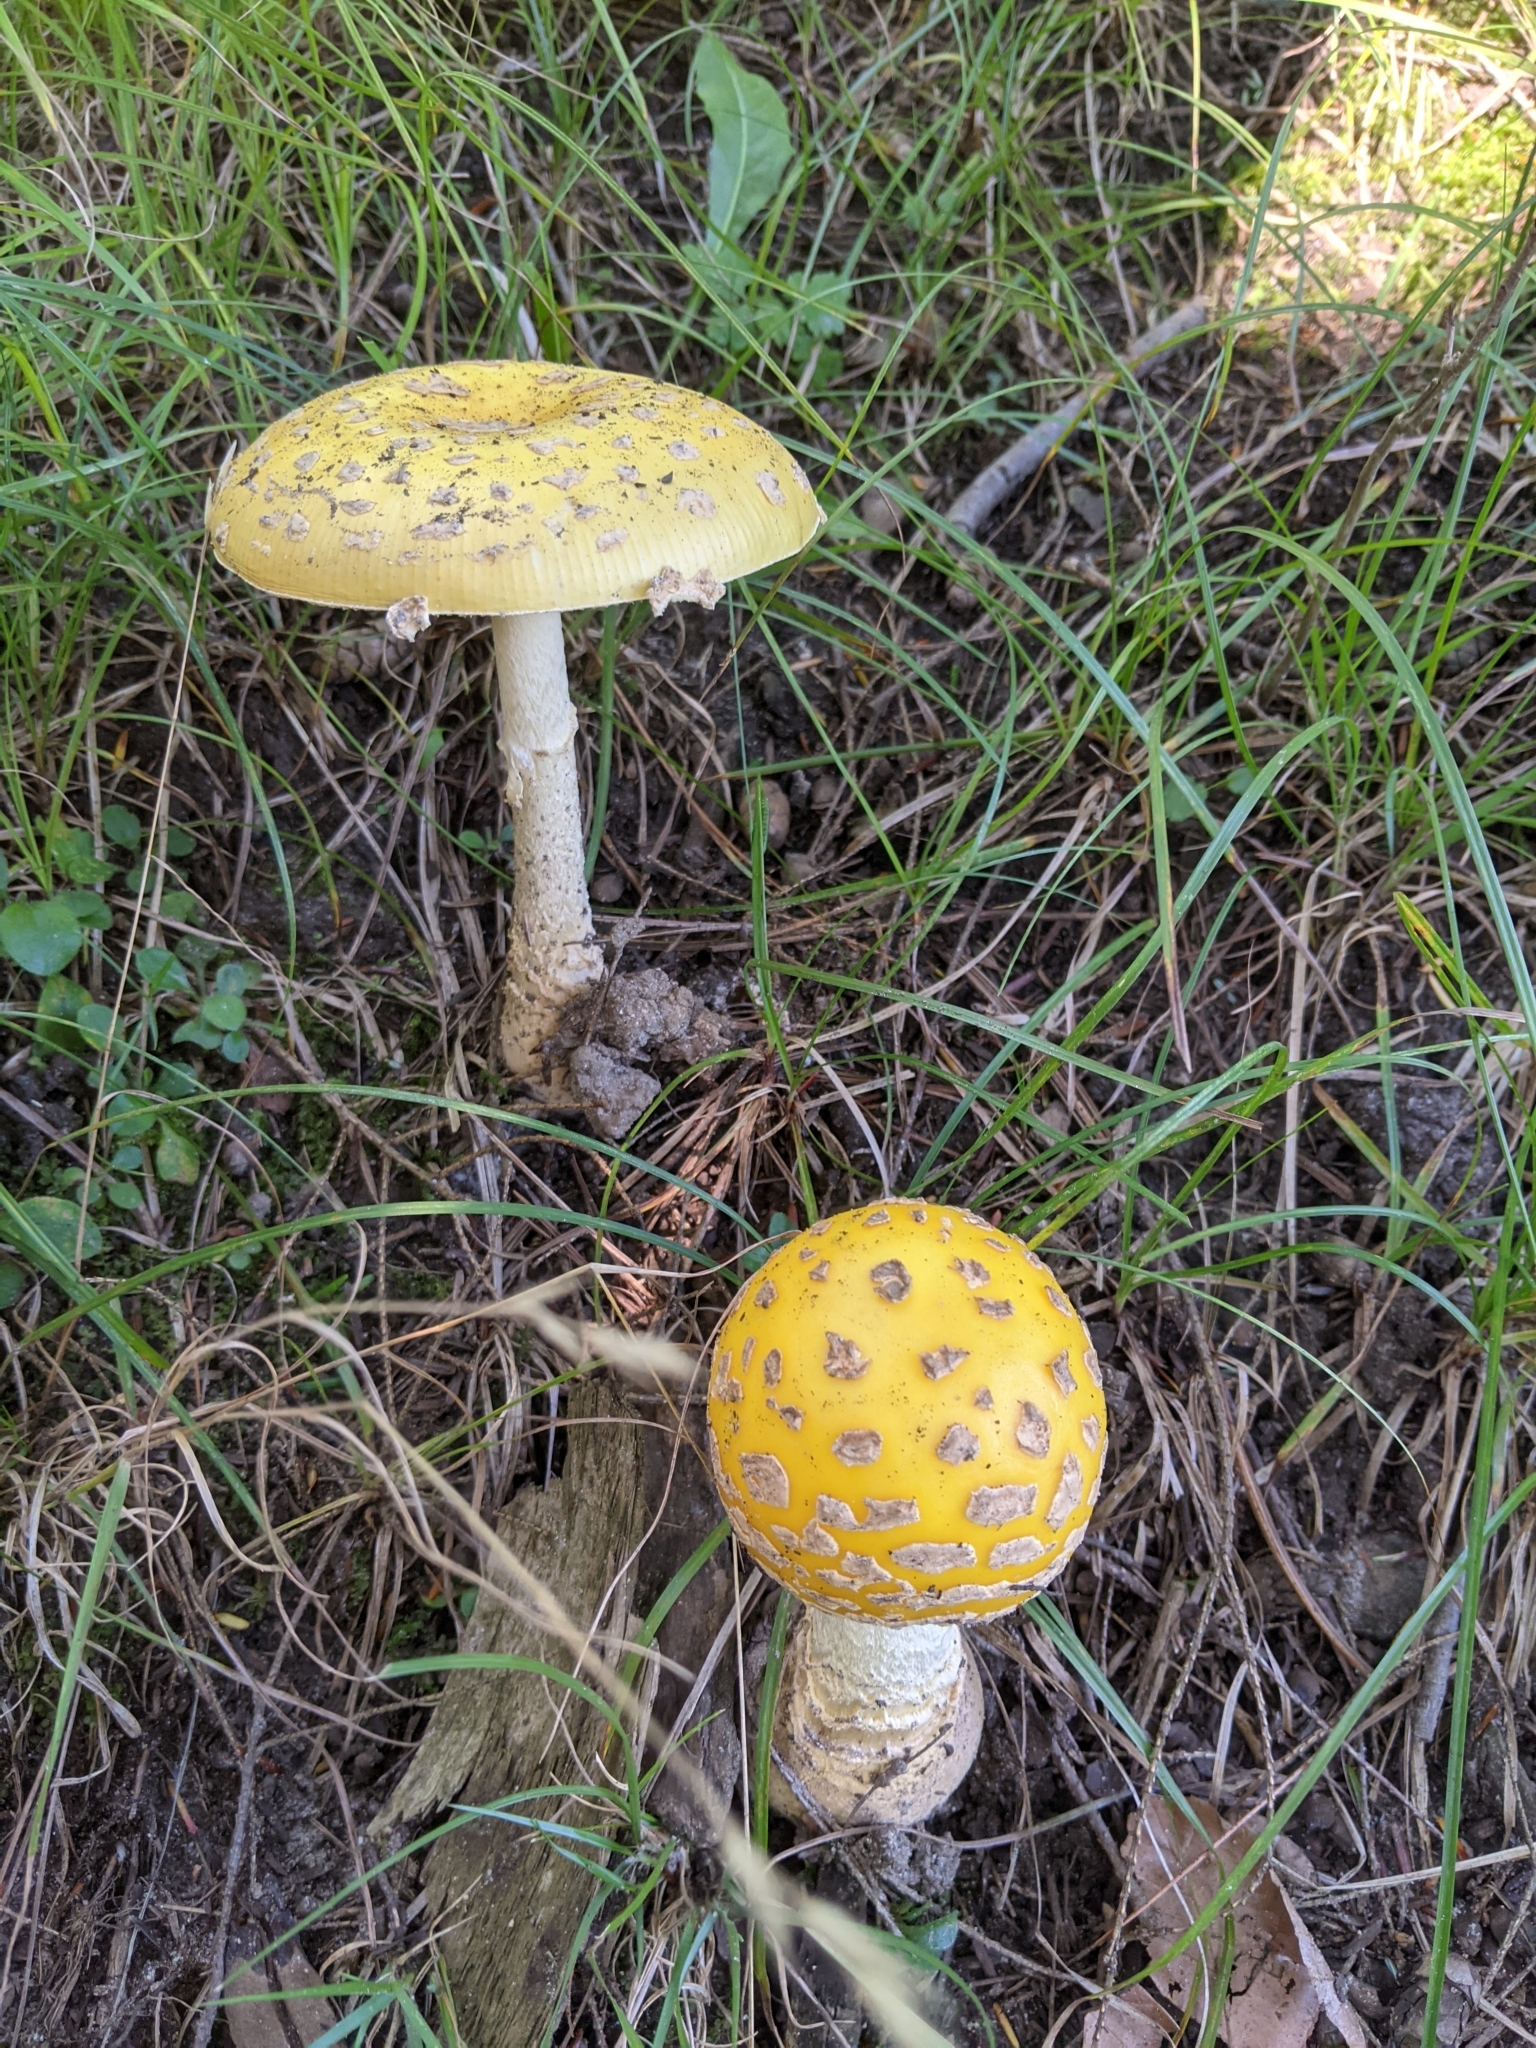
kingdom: Fungi
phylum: Basidiomycota
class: Agaricomycetes
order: Agaricales
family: Amanitaceae
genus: Amanita
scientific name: Amanita muscaria
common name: Fly agaric
